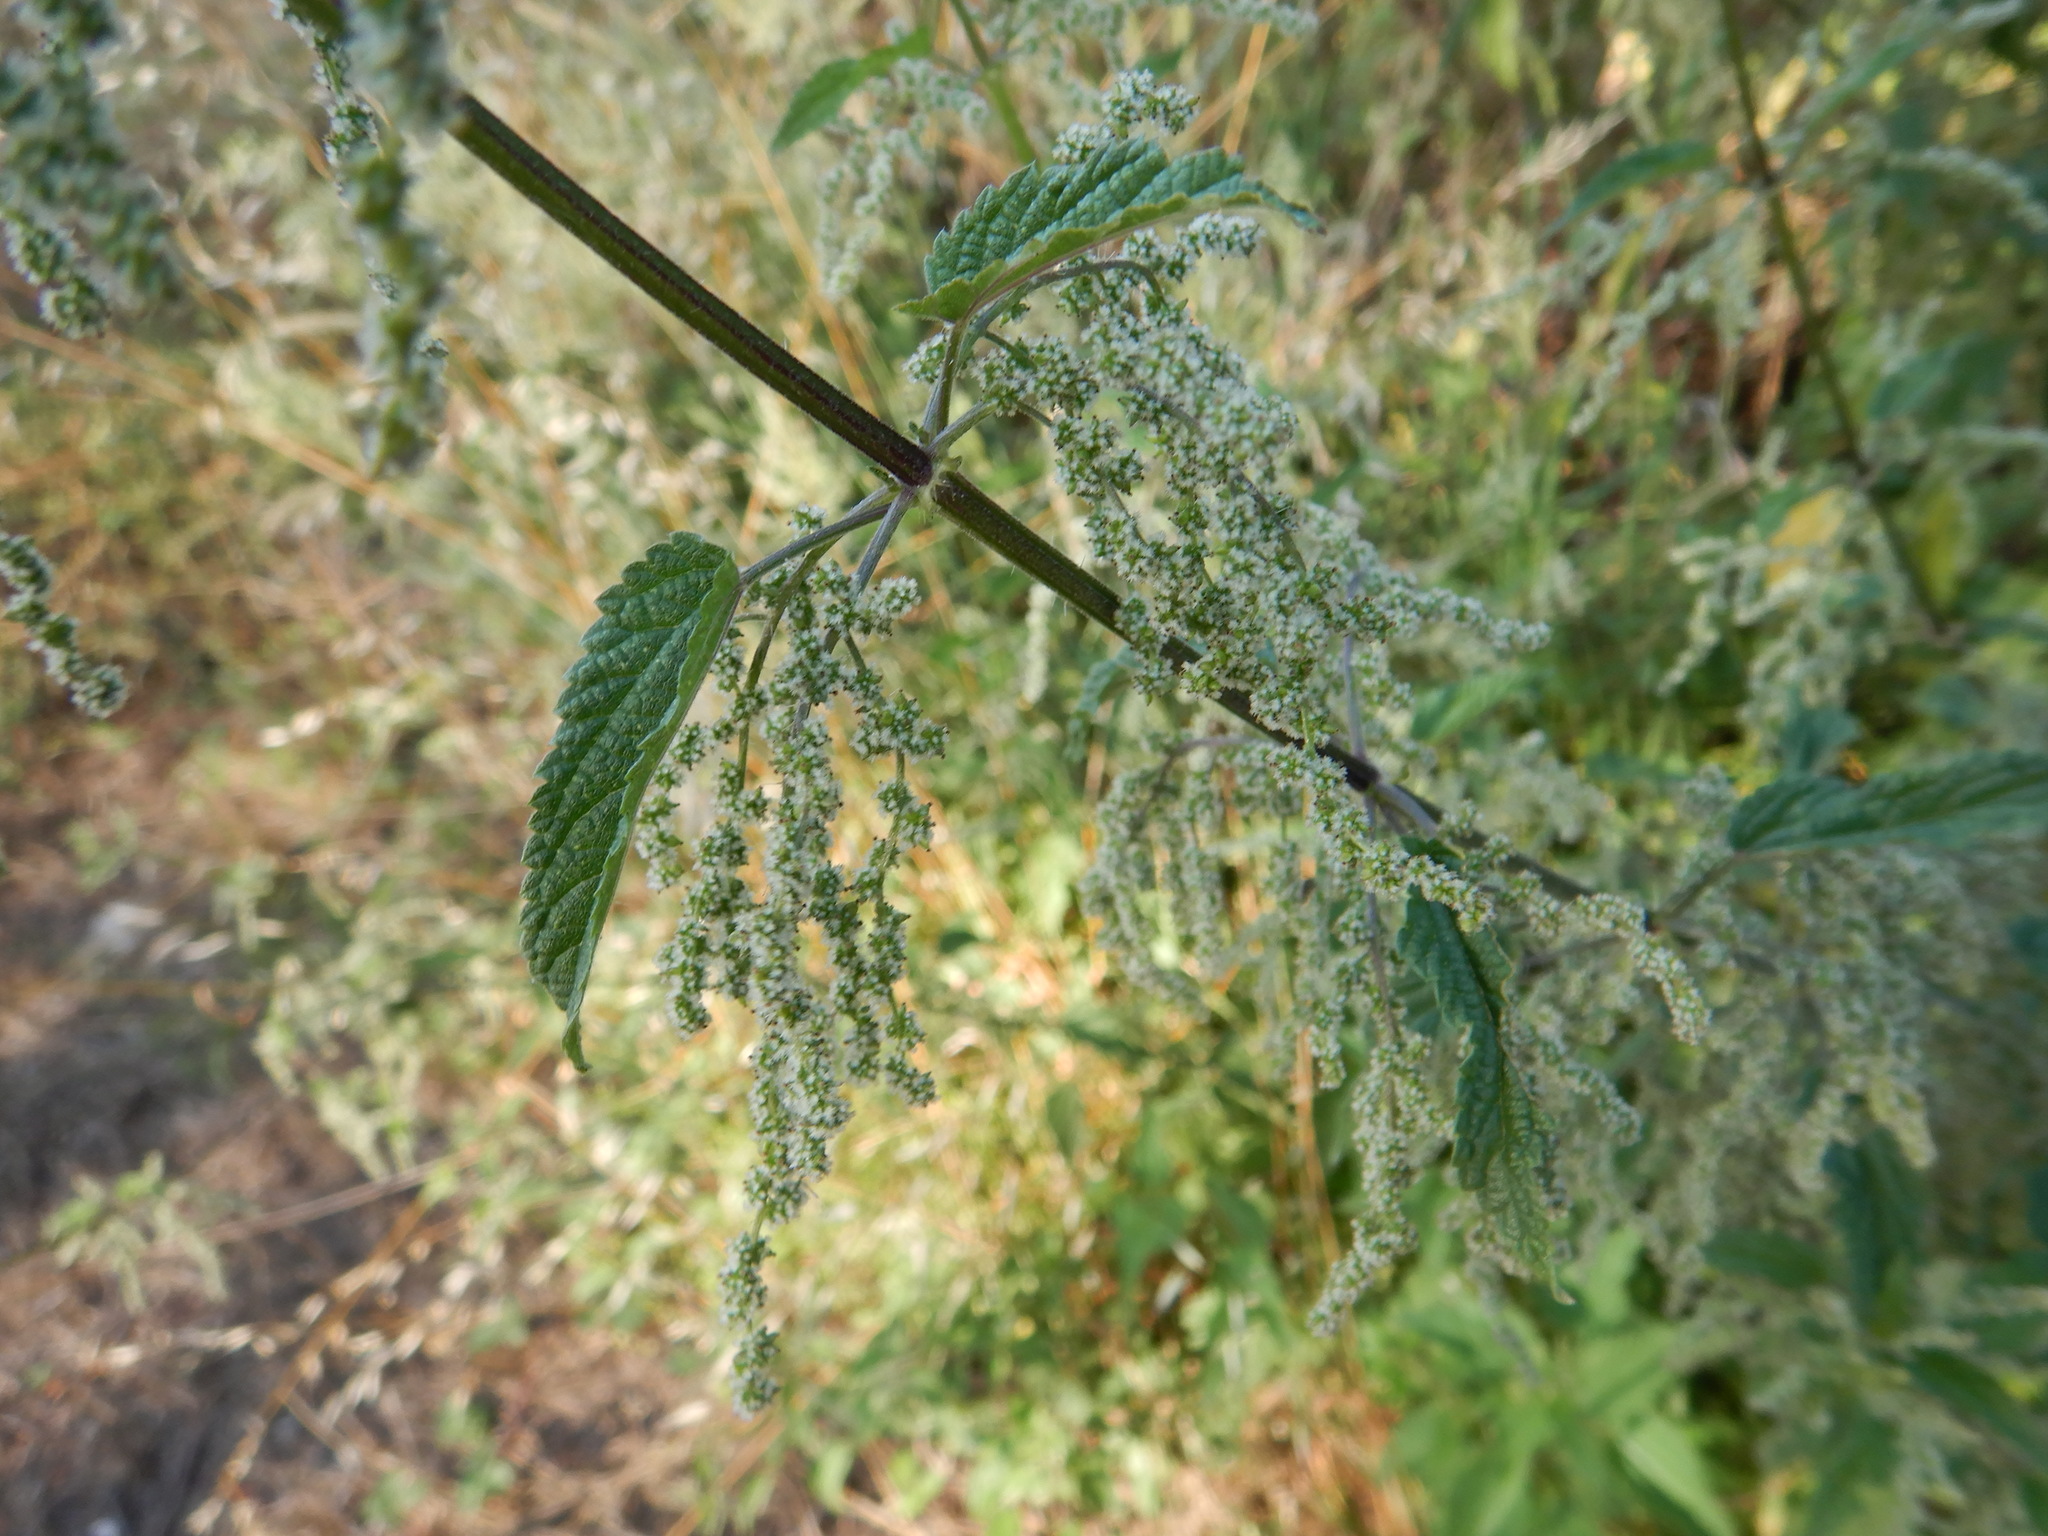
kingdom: Plantae
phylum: Tracheophyta
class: Magnoliopsida
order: Rosales
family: Urticaceae
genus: Urtica
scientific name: Urtica dioica
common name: Common nettle
